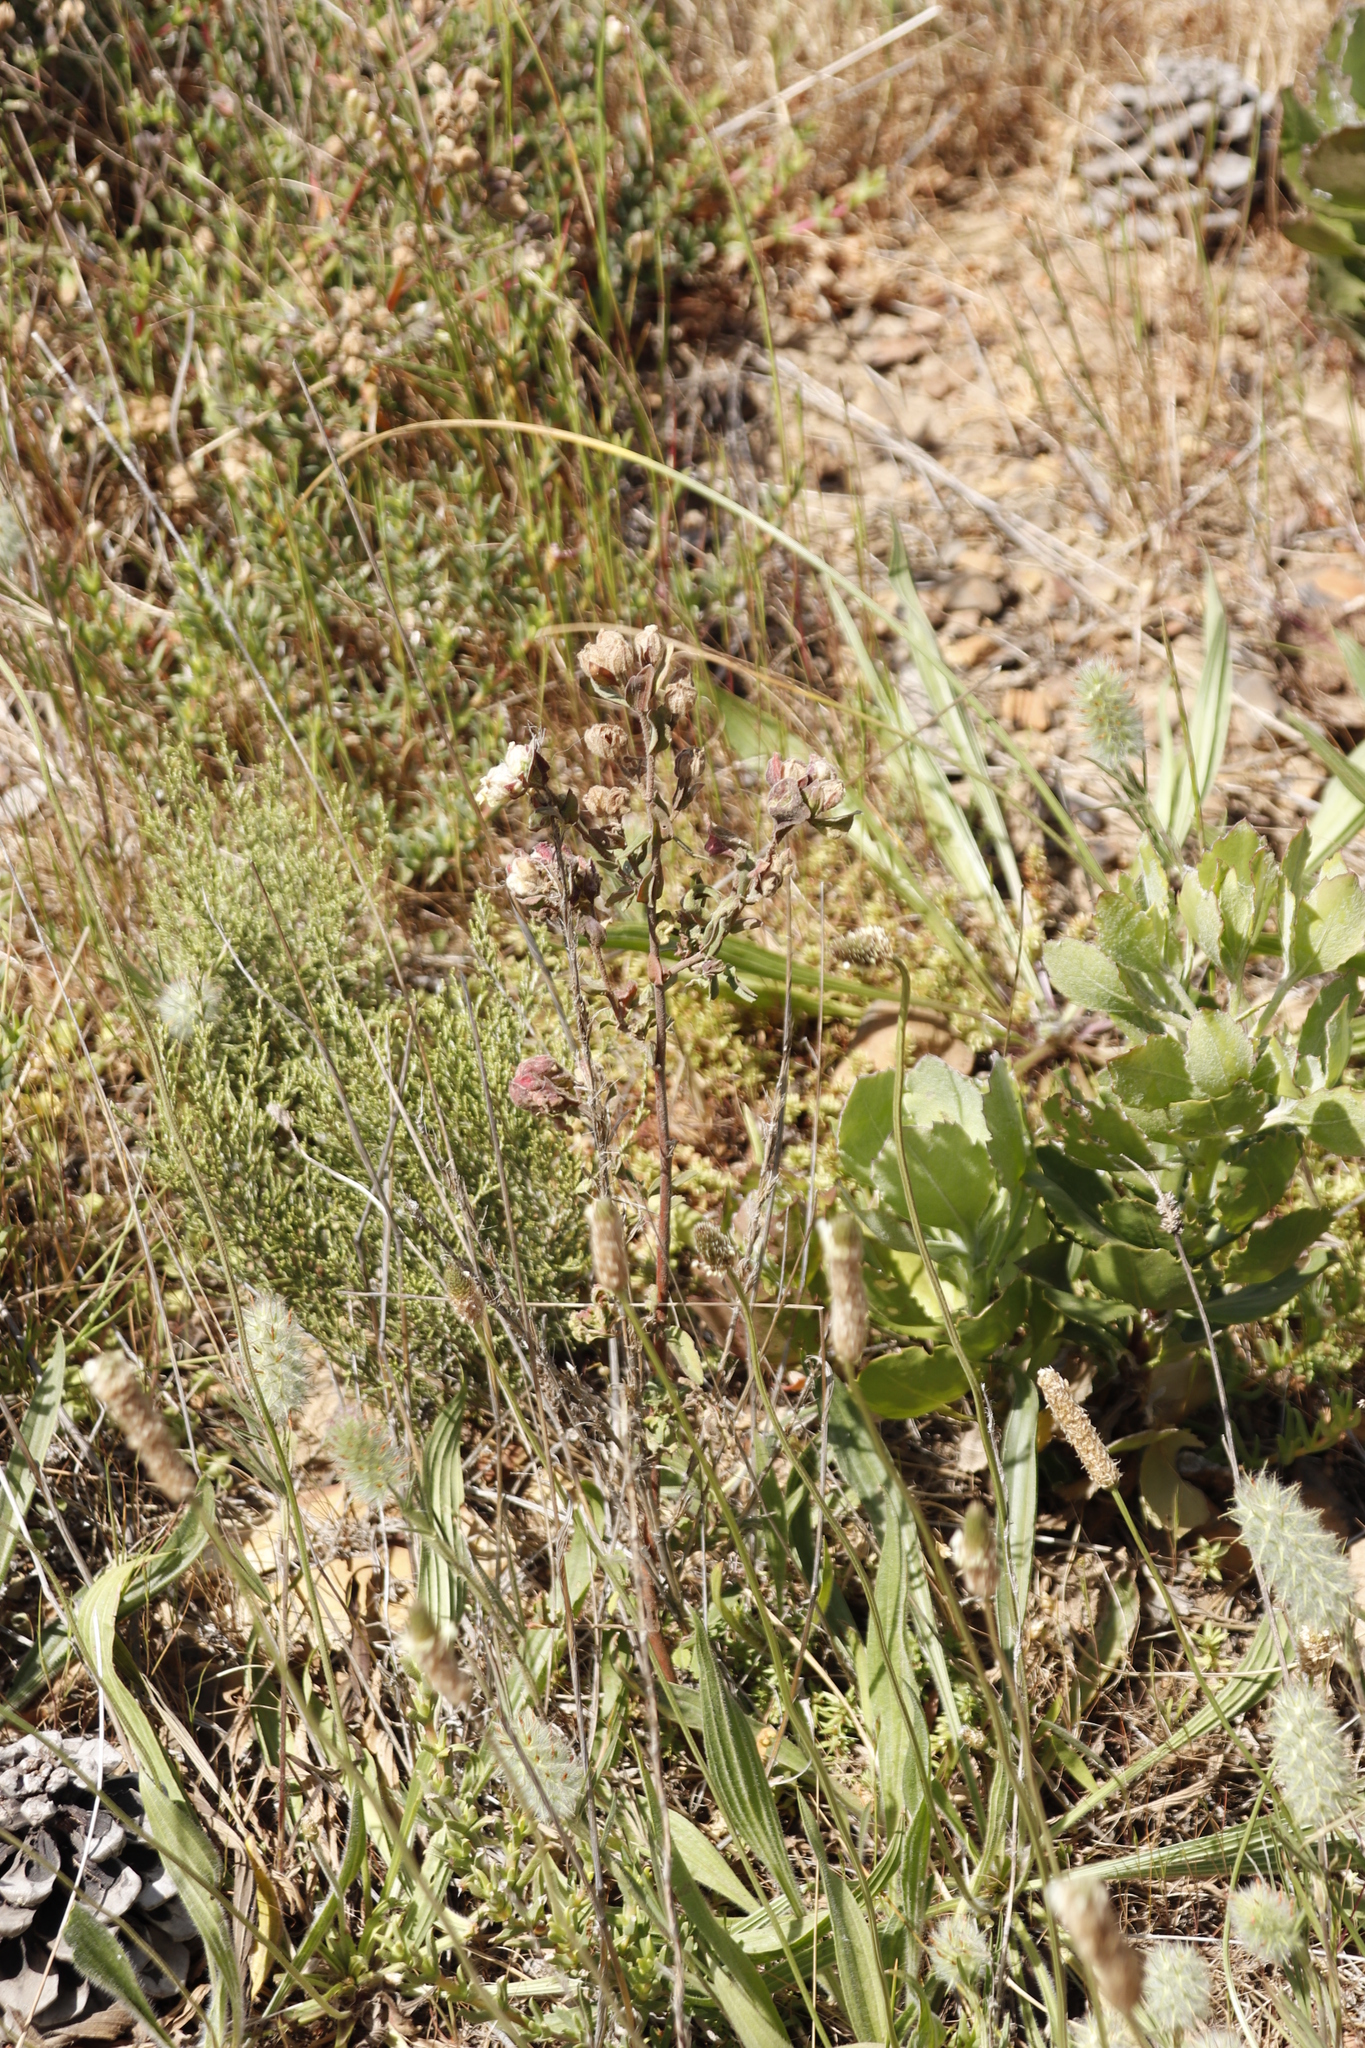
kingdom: Plantae
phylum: Tracheophyta
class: Magnoliopsida
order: Malvales
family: Malvaceae
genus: Hermannia
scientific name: Hermannia hyssopifolia
